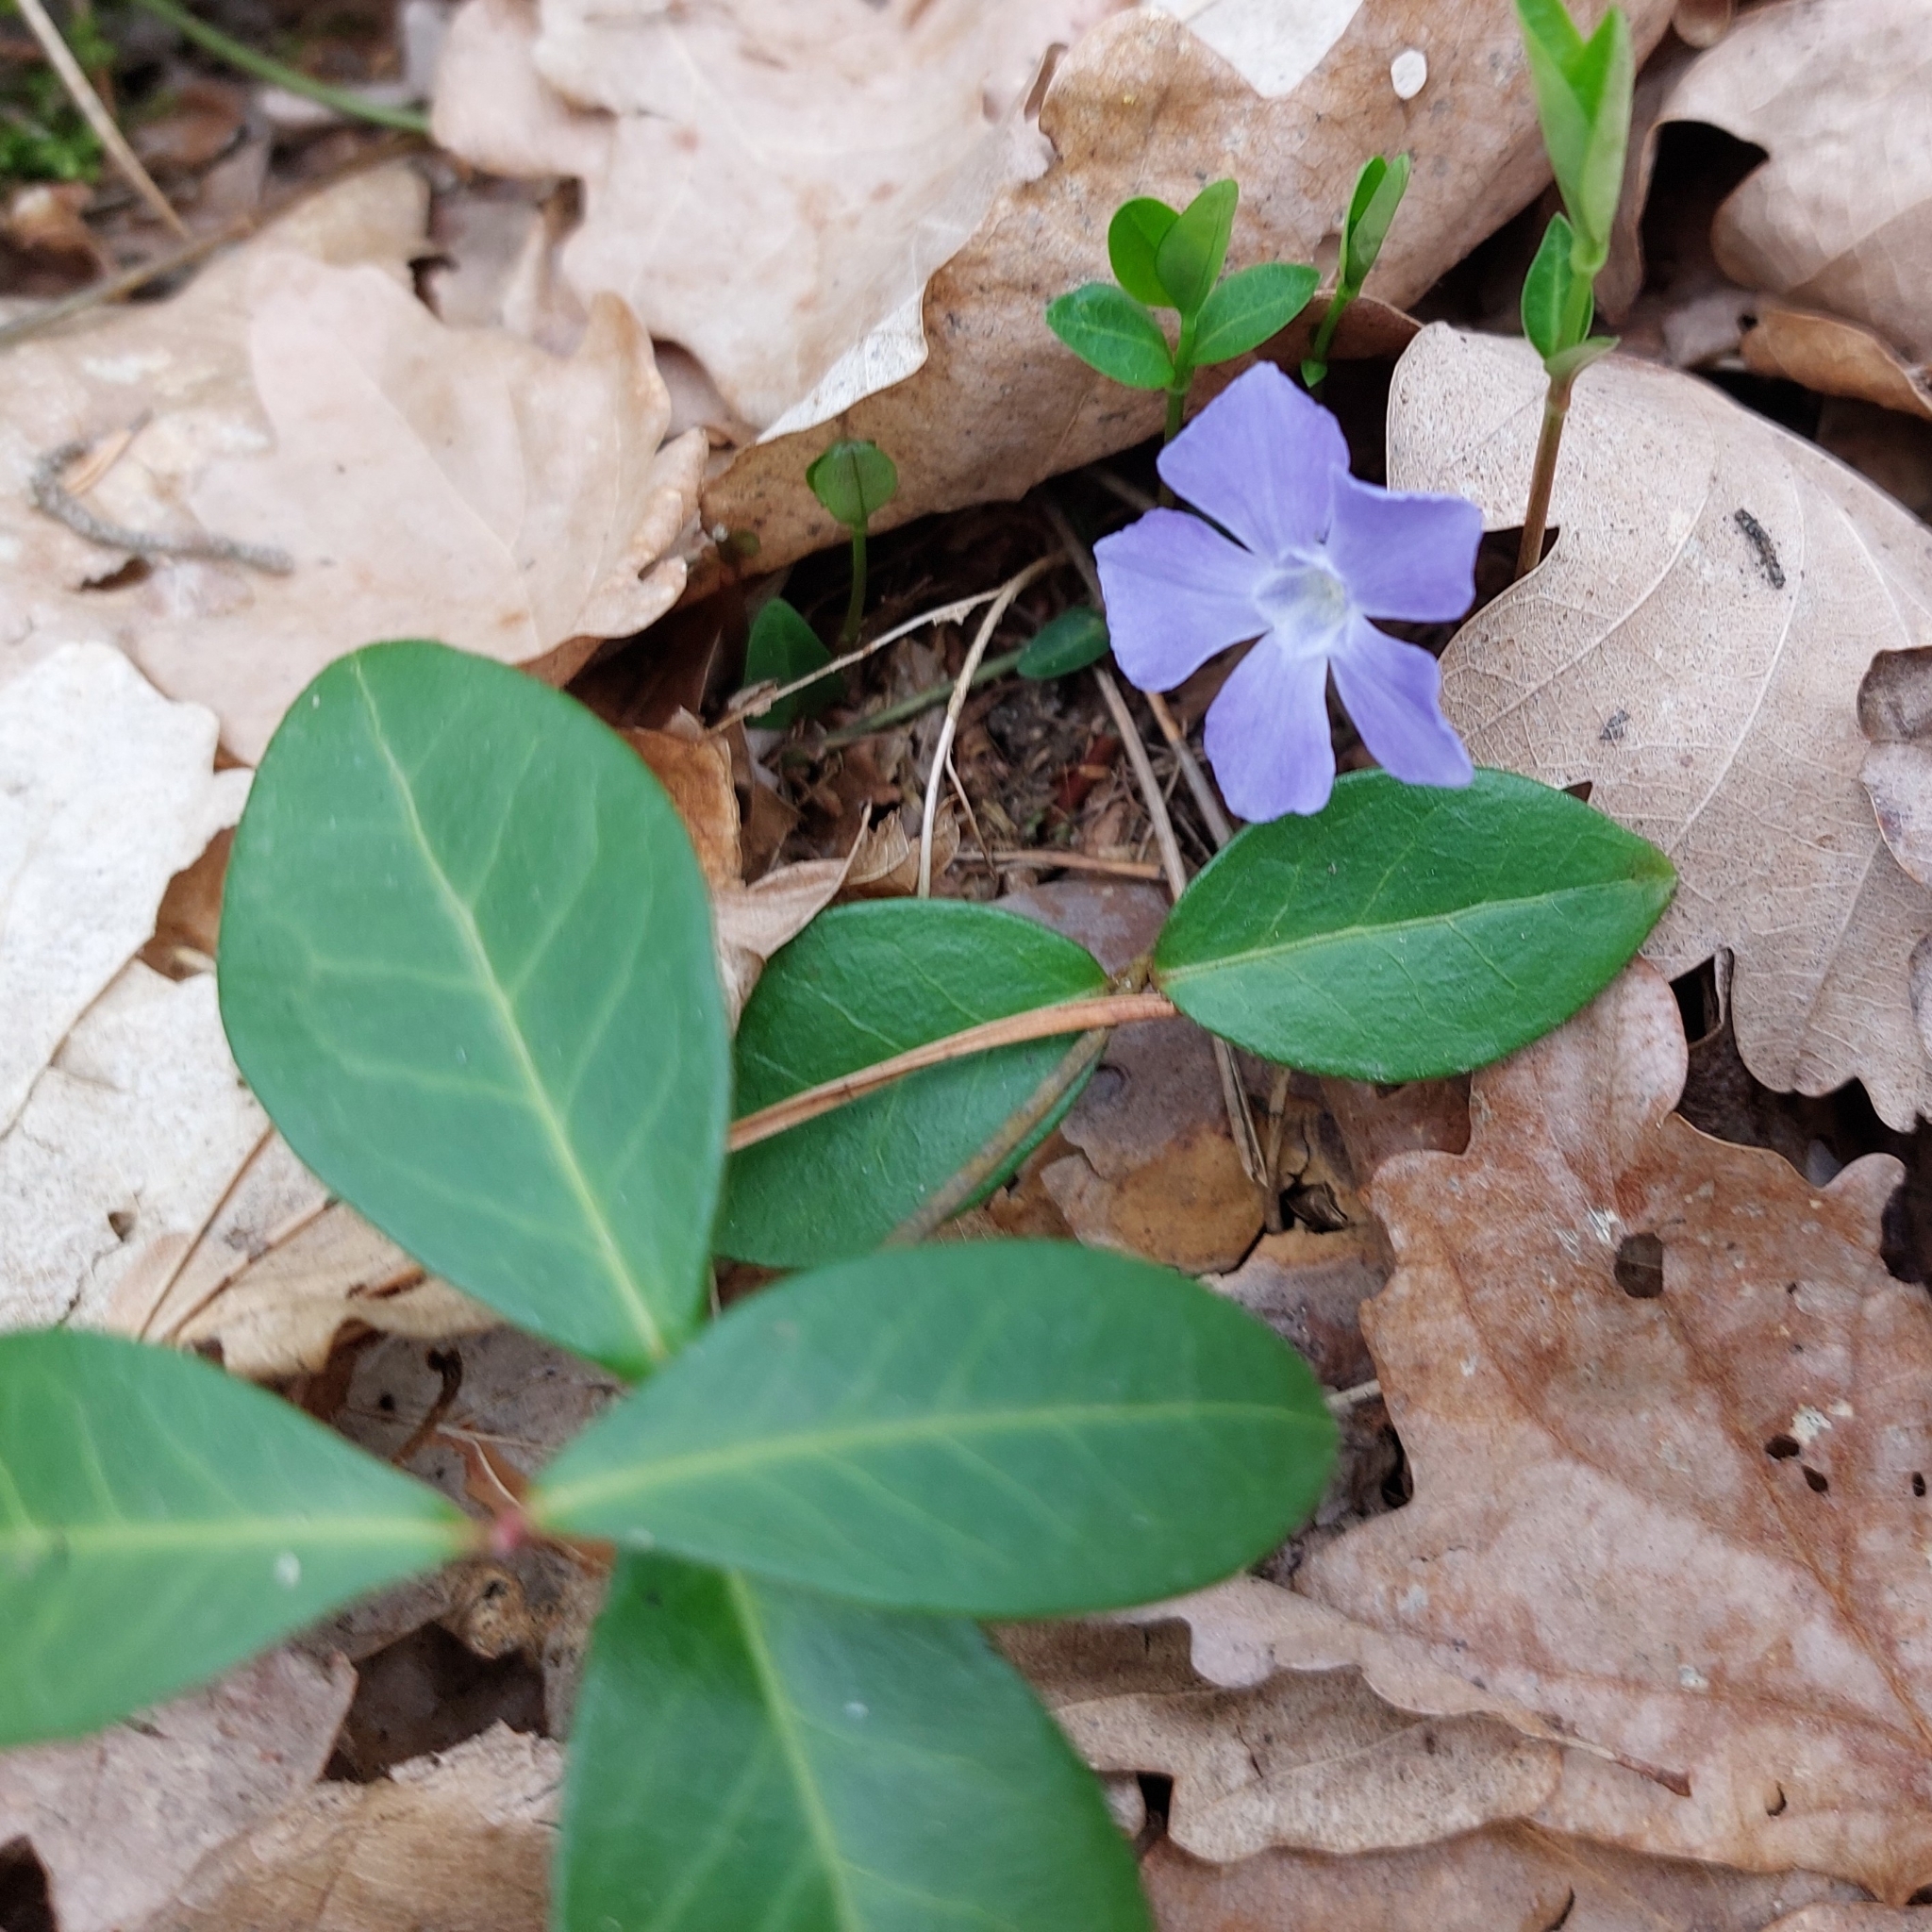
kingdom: Plantae
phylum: Tracheophyta
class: Magnoliopsida
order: Gentianales
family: Apocynaceae
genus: Vinca
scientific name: Vinca minor
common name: Lesser periwinkle
